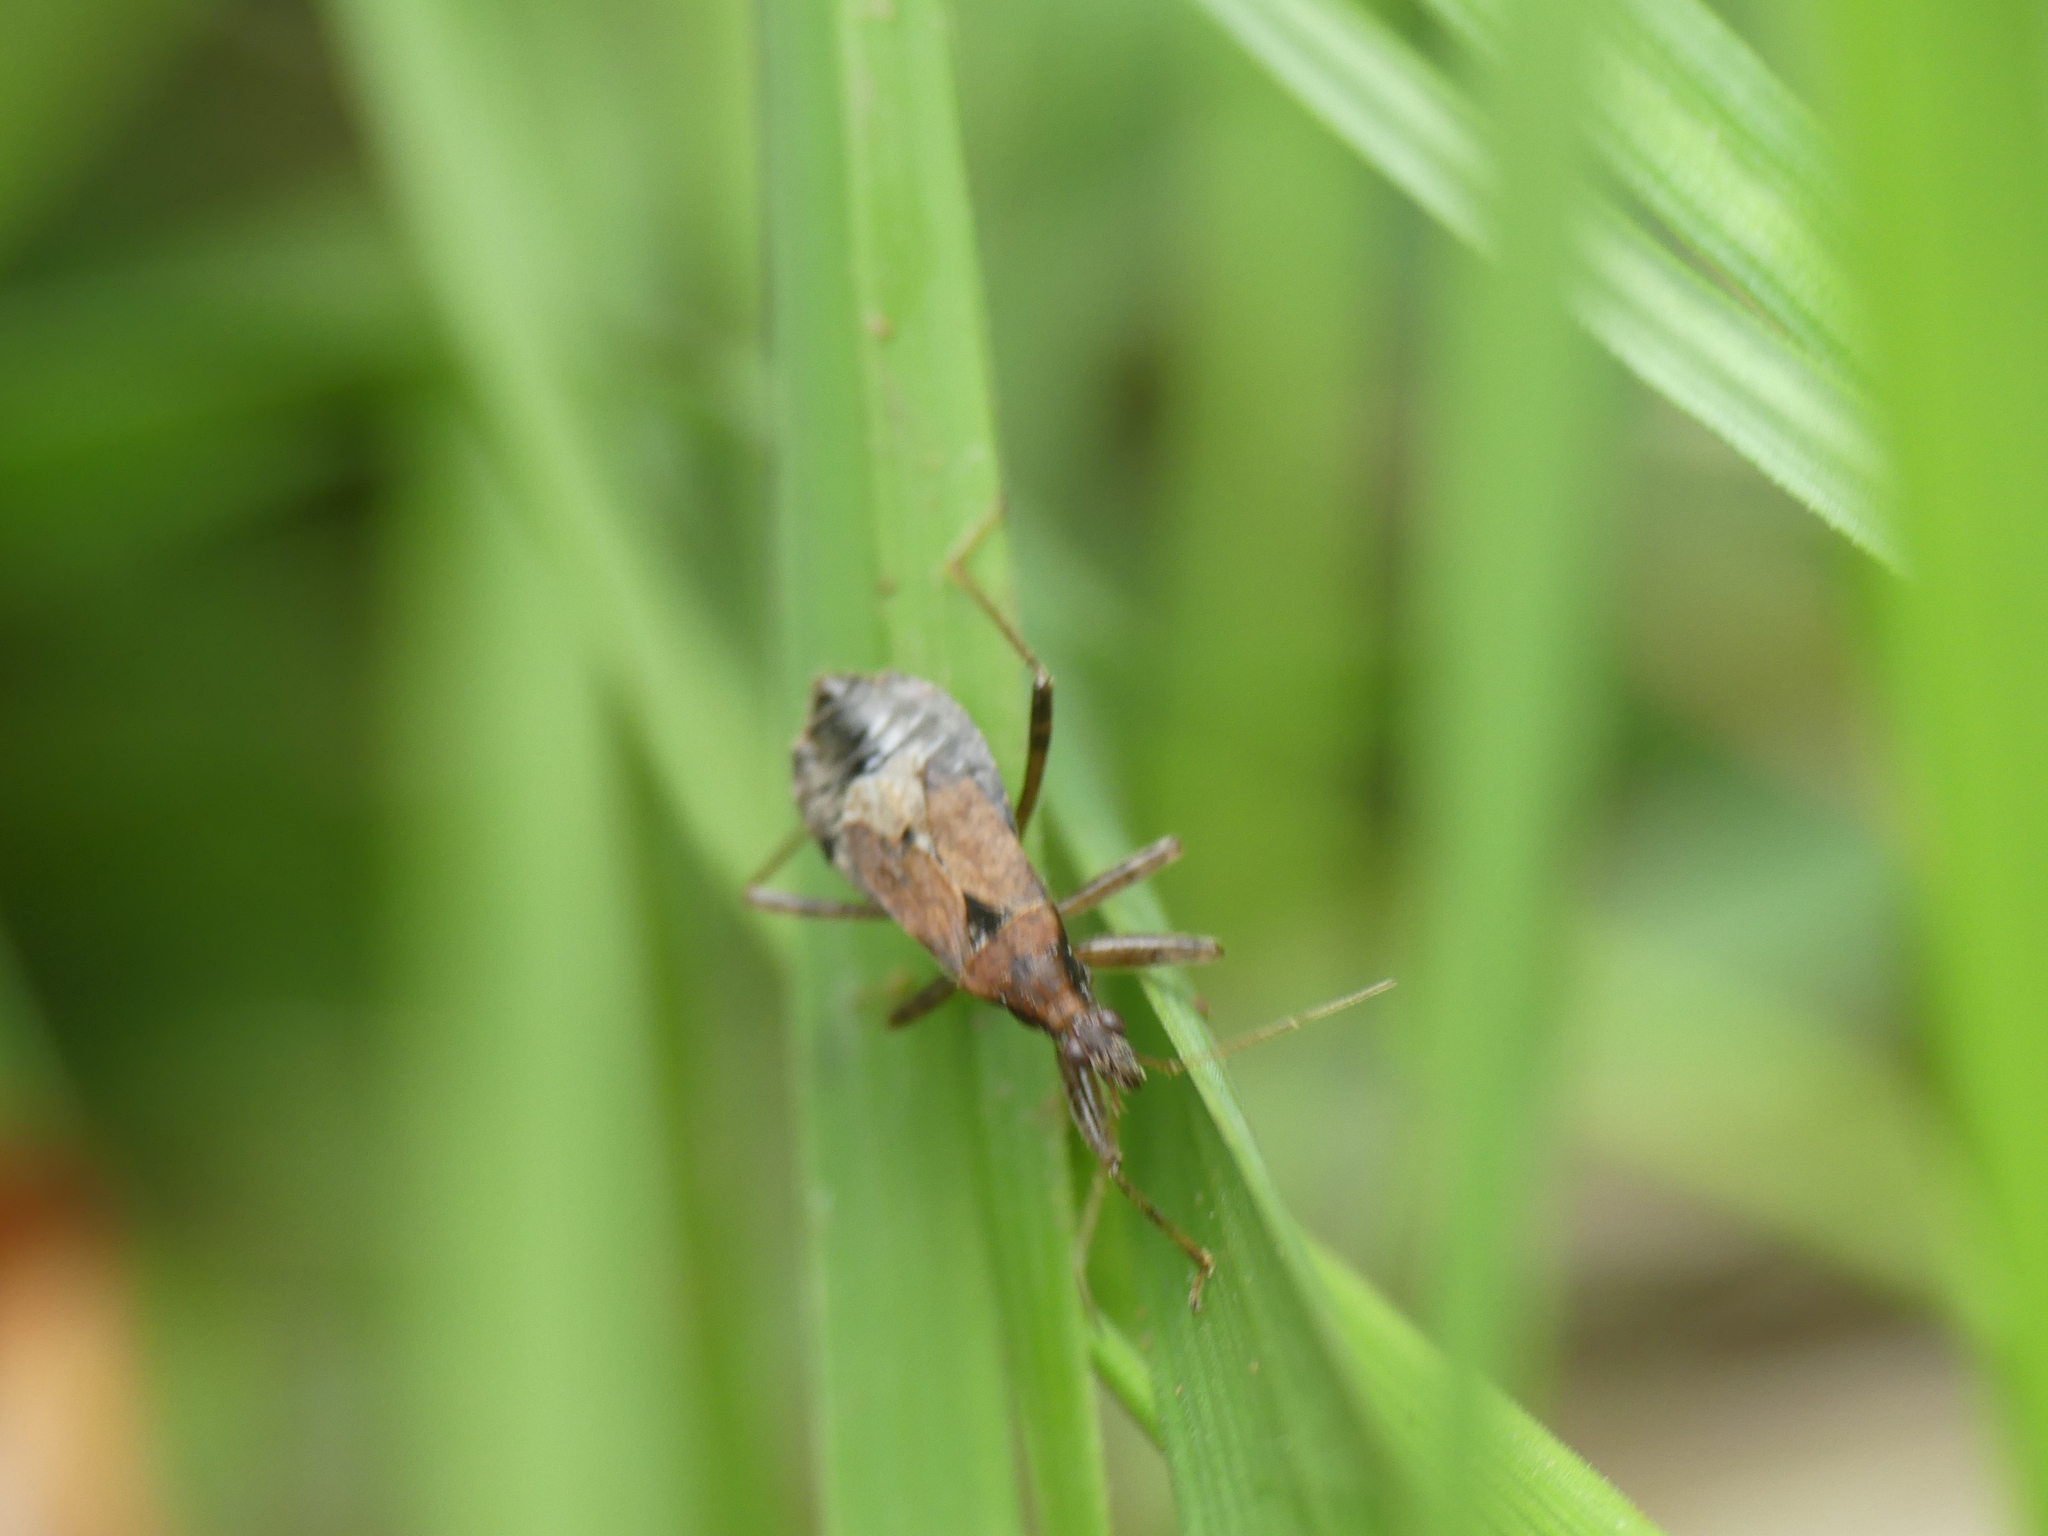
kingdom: Animalia
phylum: Arthropoda
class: Insecta
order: Hemiptera
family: Nabidae
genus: Himacerus
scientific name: Himacerus mirmicoides
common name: Ant damsel bug
